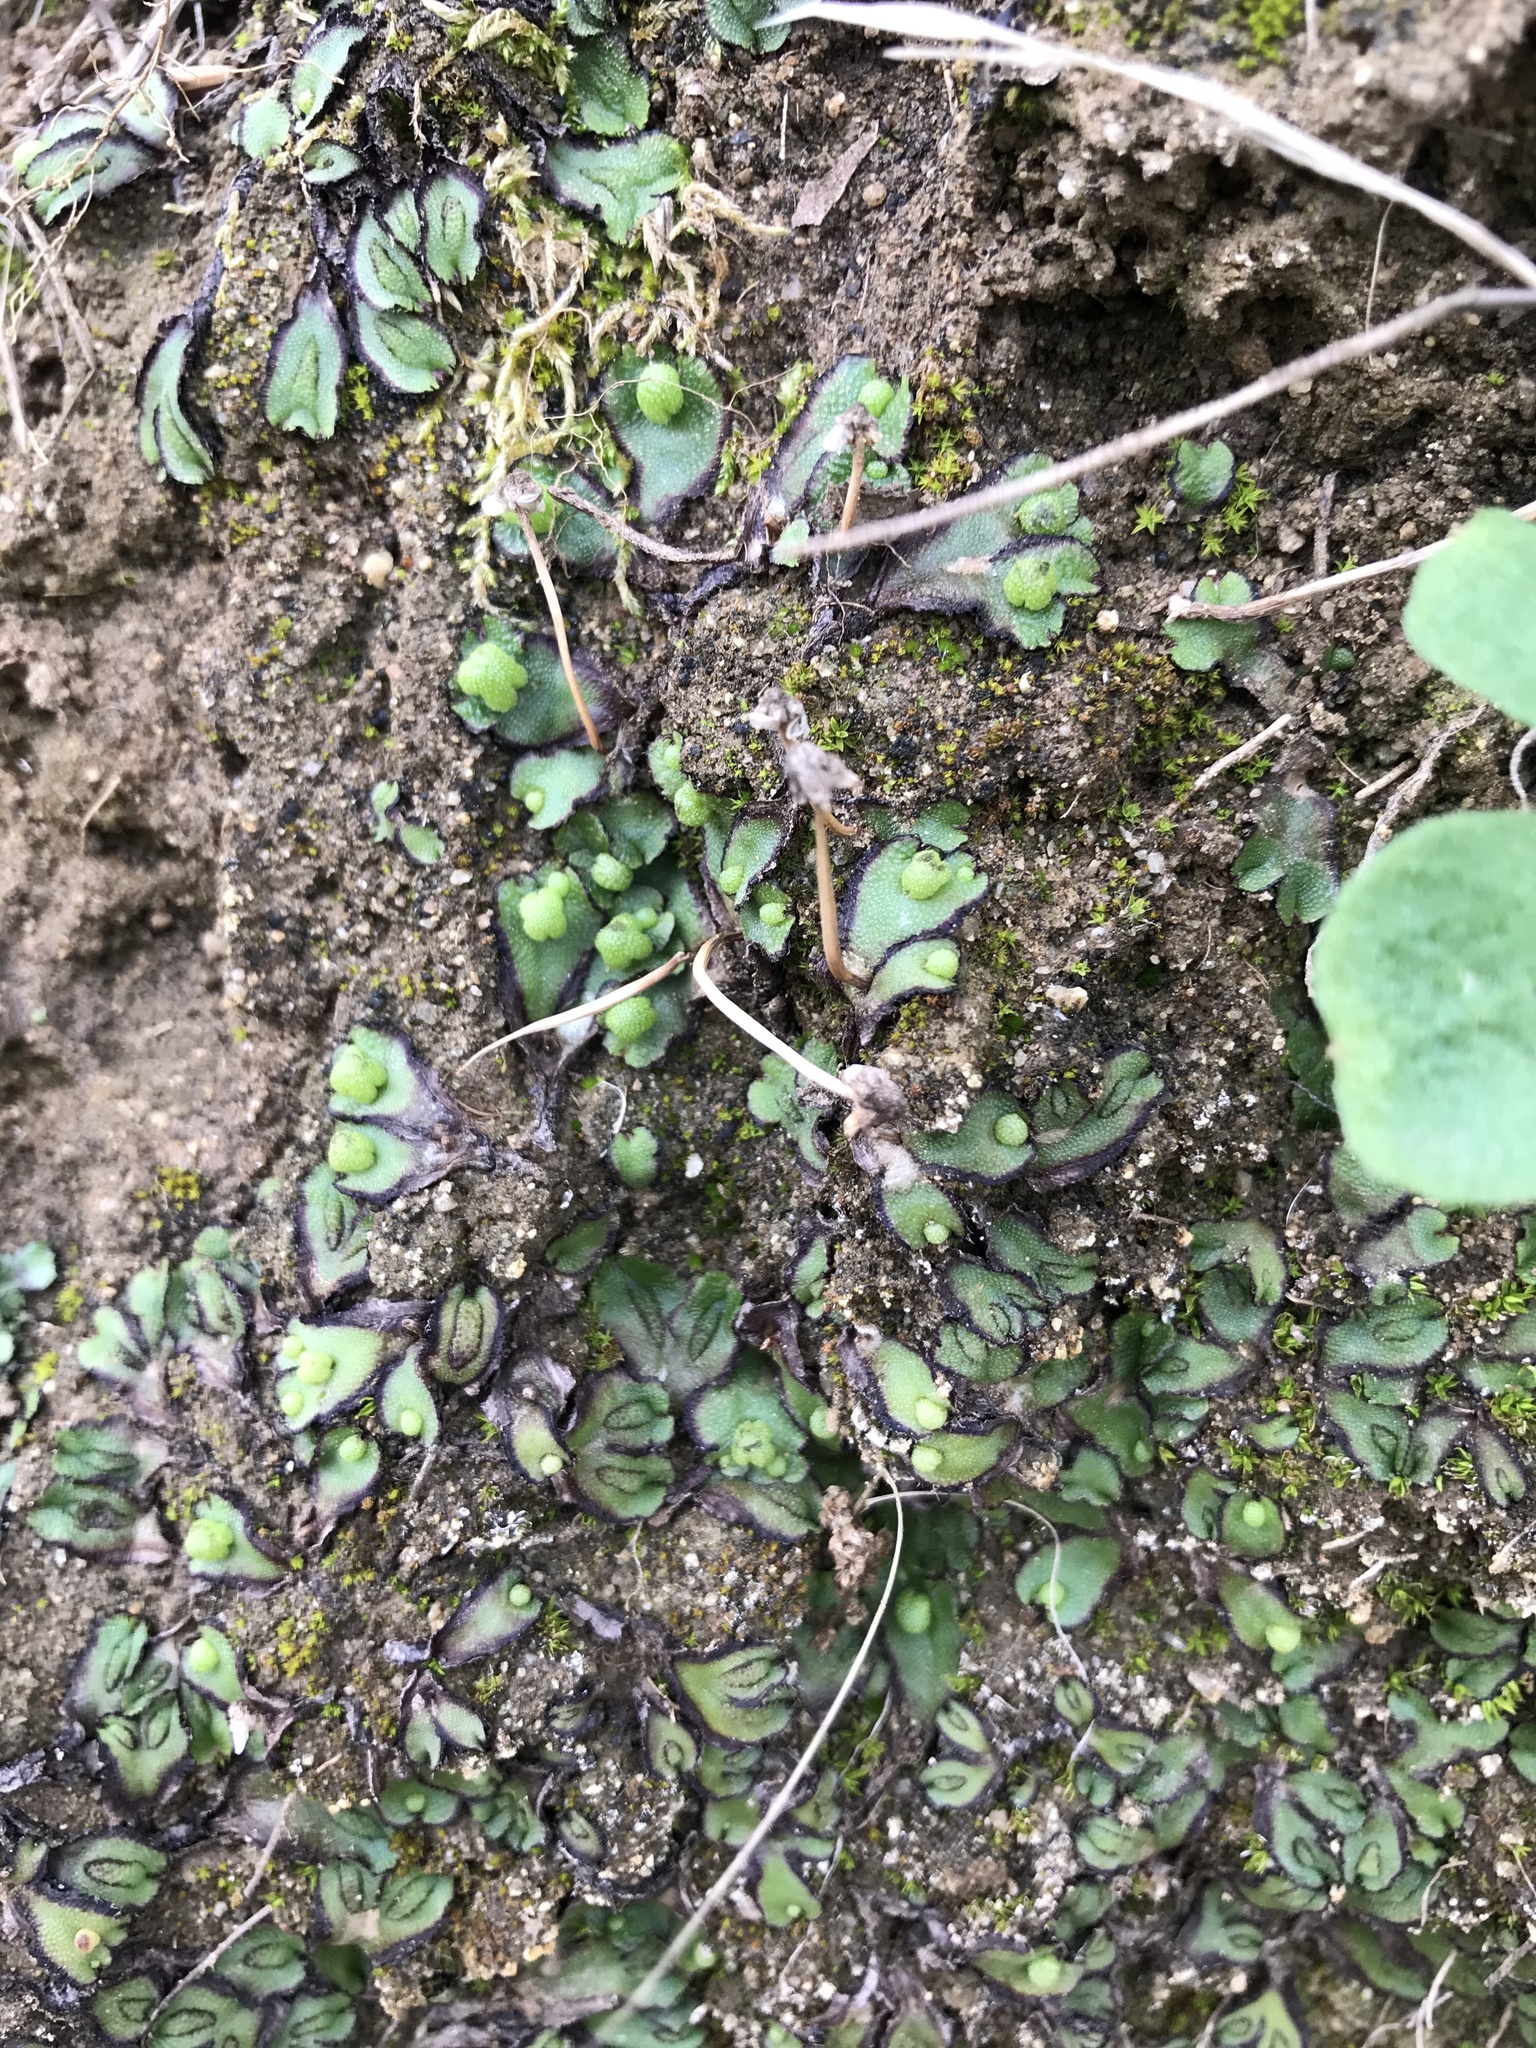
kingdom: Plantae
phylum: Marchantiophyta
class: Marchantiopsida
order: Marchantiales
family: Aytoniaceae
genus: Asterella
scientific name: Asterella californica
